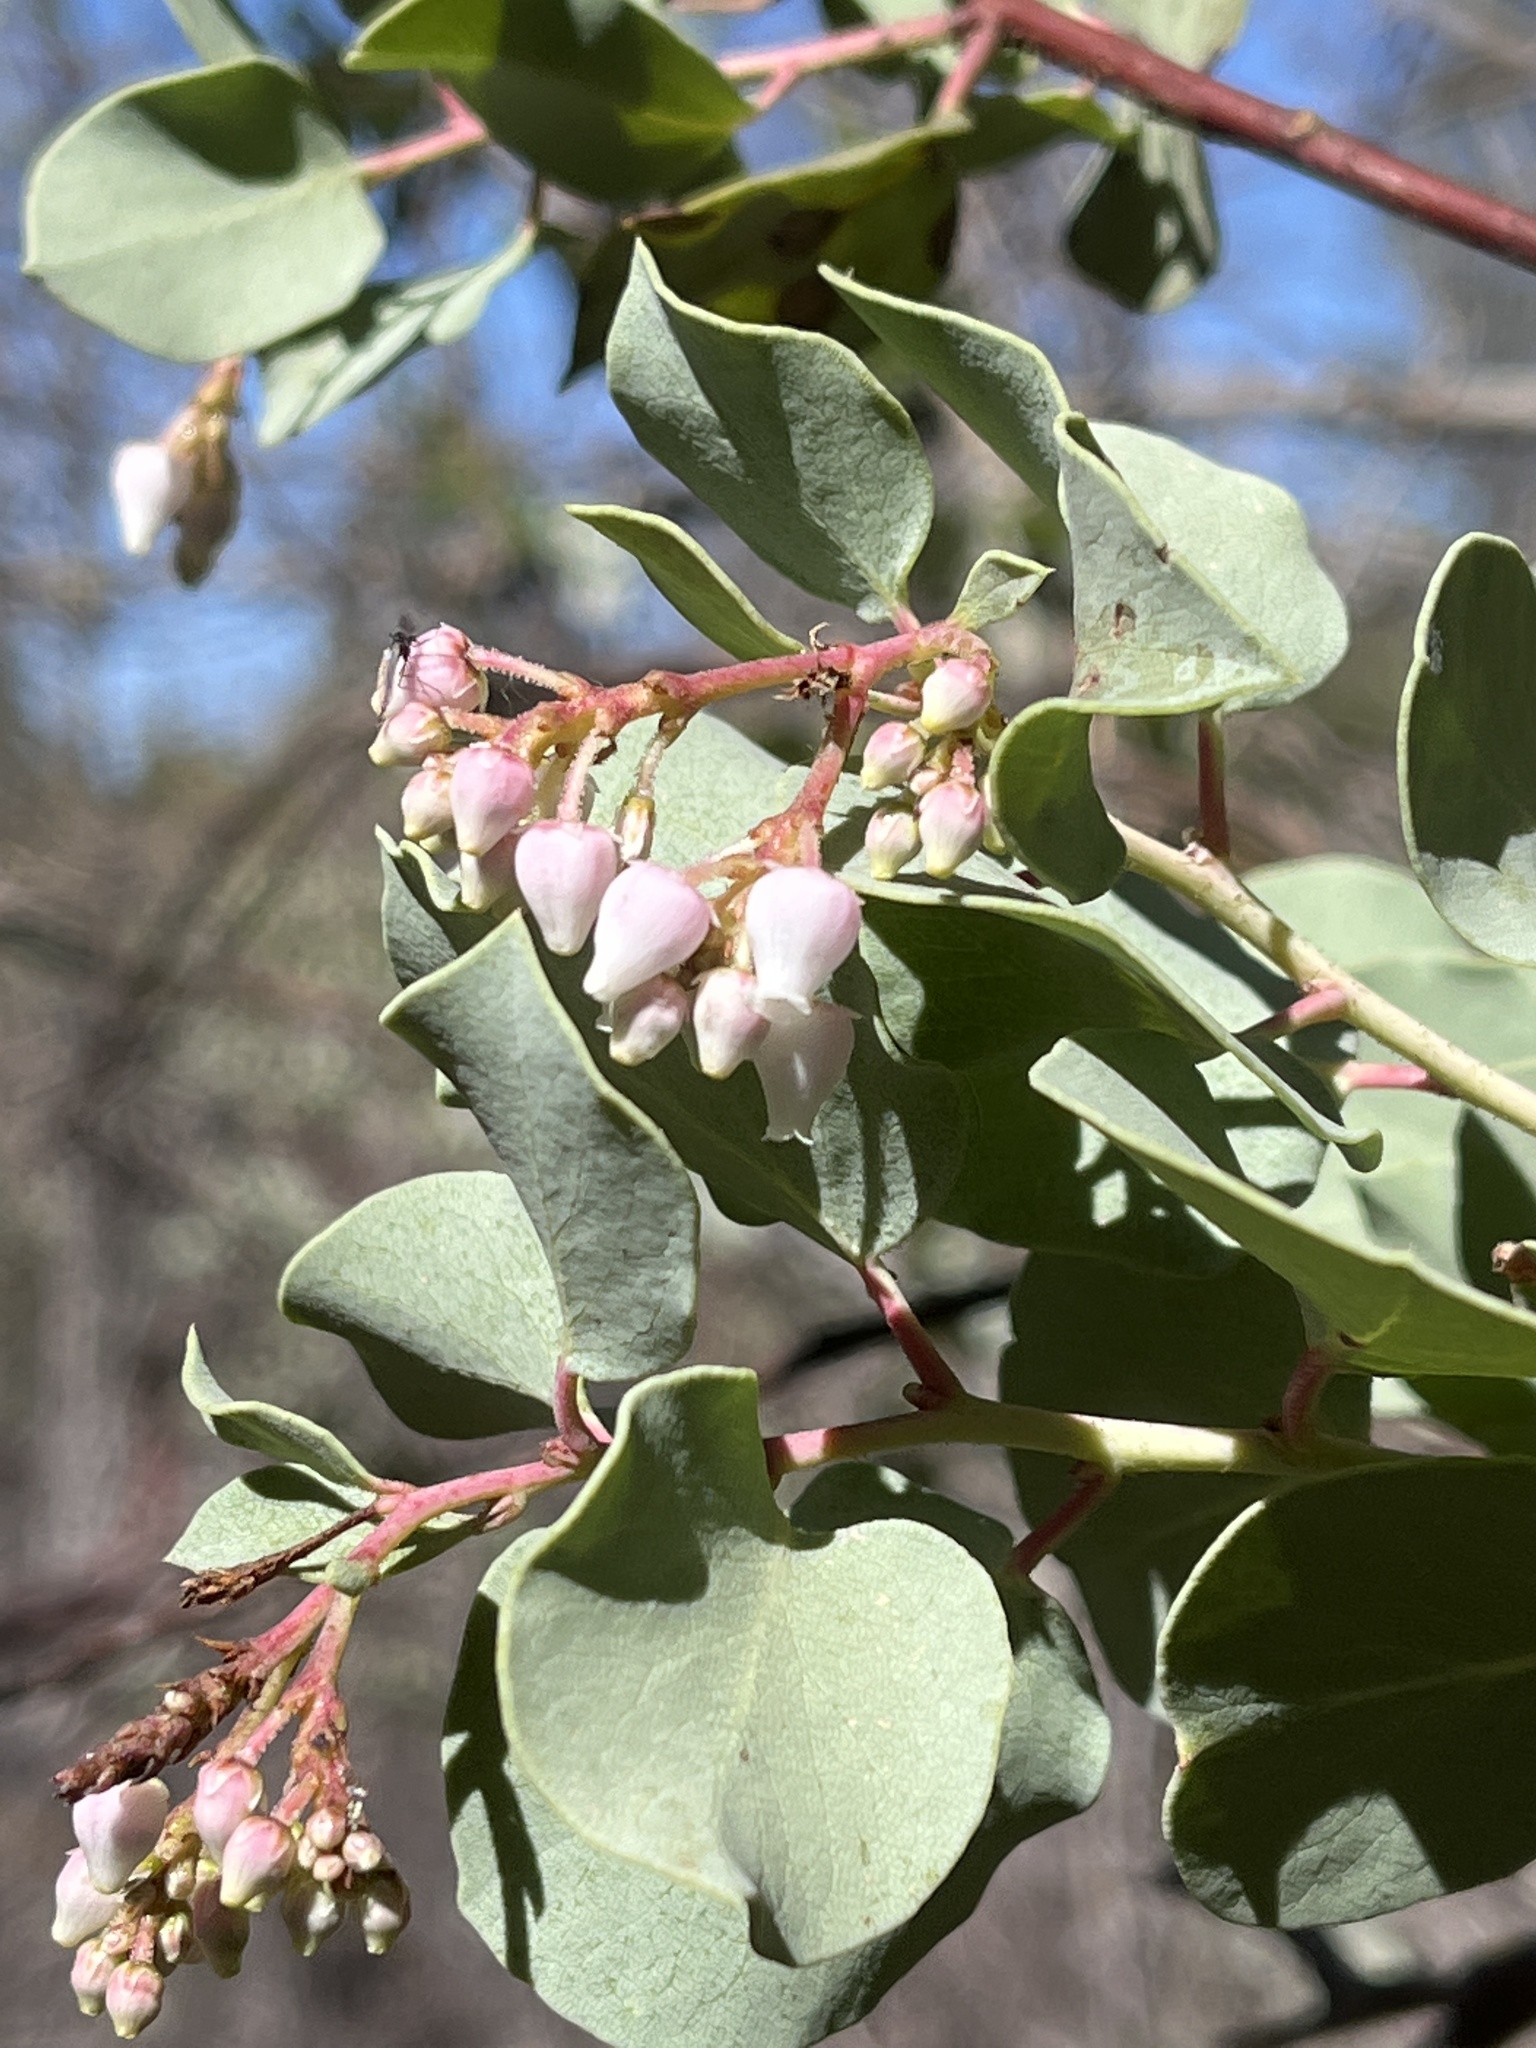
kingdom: Plantae
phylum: Tracheophyta
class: Magnoliopsida
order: Ericales
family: Ericaceae
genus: Arctostaphylos
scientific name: Arctostaphylos viscida
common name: White-leaf manzanita
